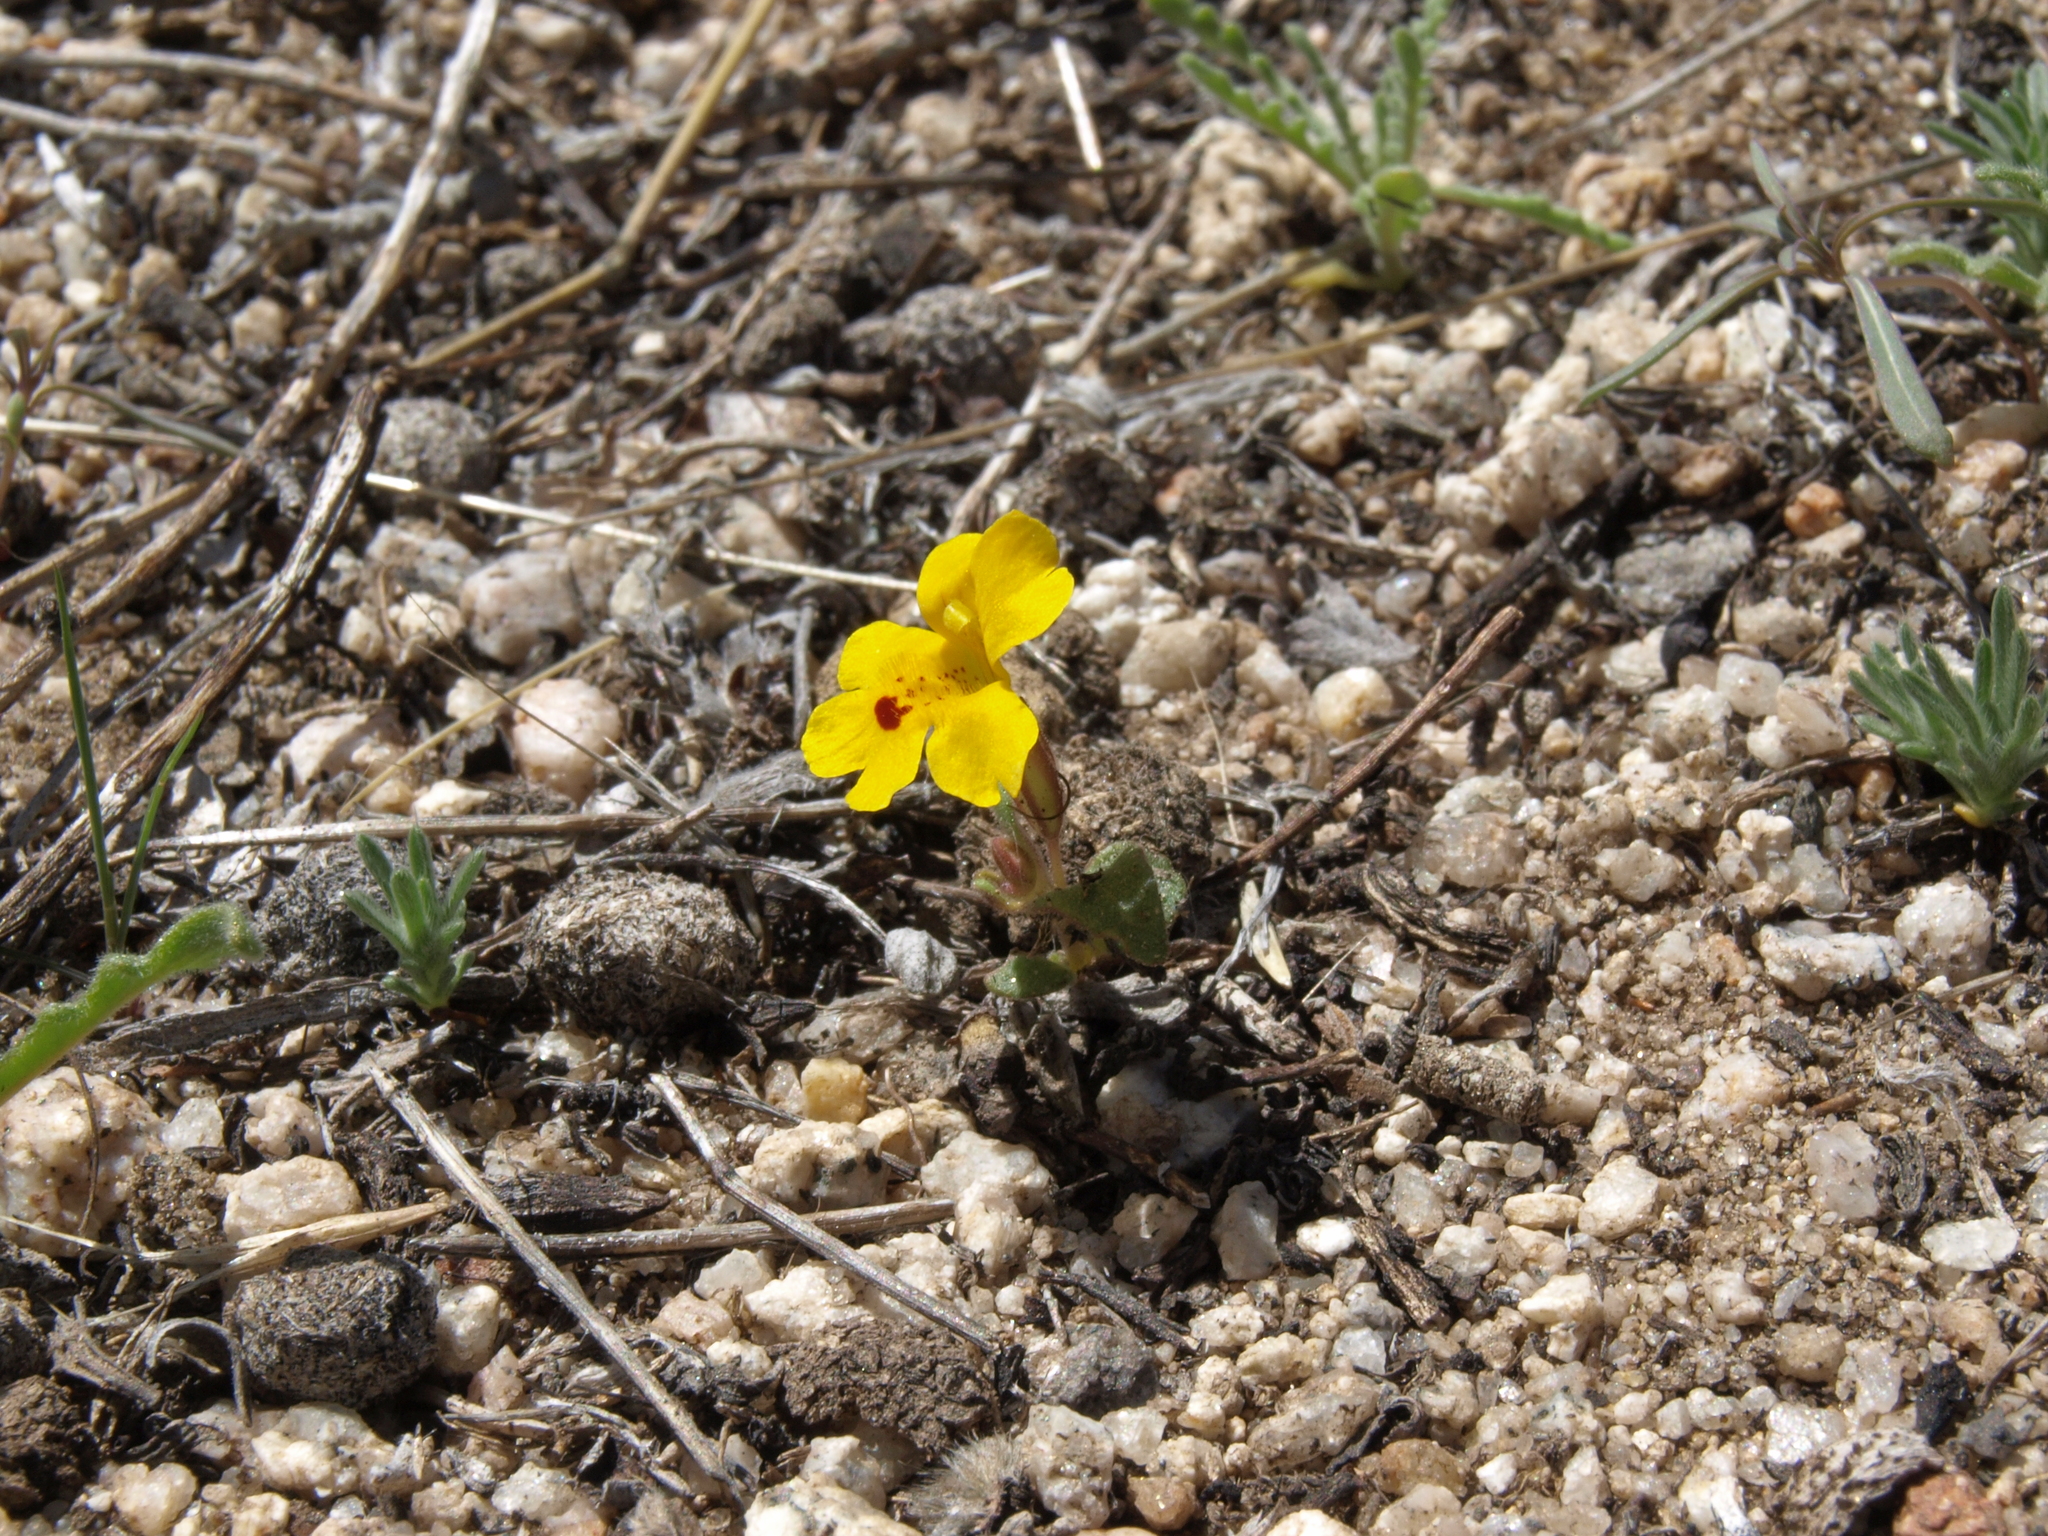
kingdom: Plantae
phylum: Tracheophyta
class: Magnoliopsida
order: Lamiales
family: Phrymaceae
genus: Erythranthe
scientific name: Erythranthe carsonensis
